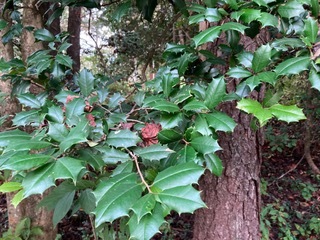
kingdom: Plantae
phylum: Tracheophyta
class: Magnoliopsida
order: Aquifoliales
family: Aquifoliaceae
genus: Ilex
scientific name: Ilex opaca
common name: American holly
